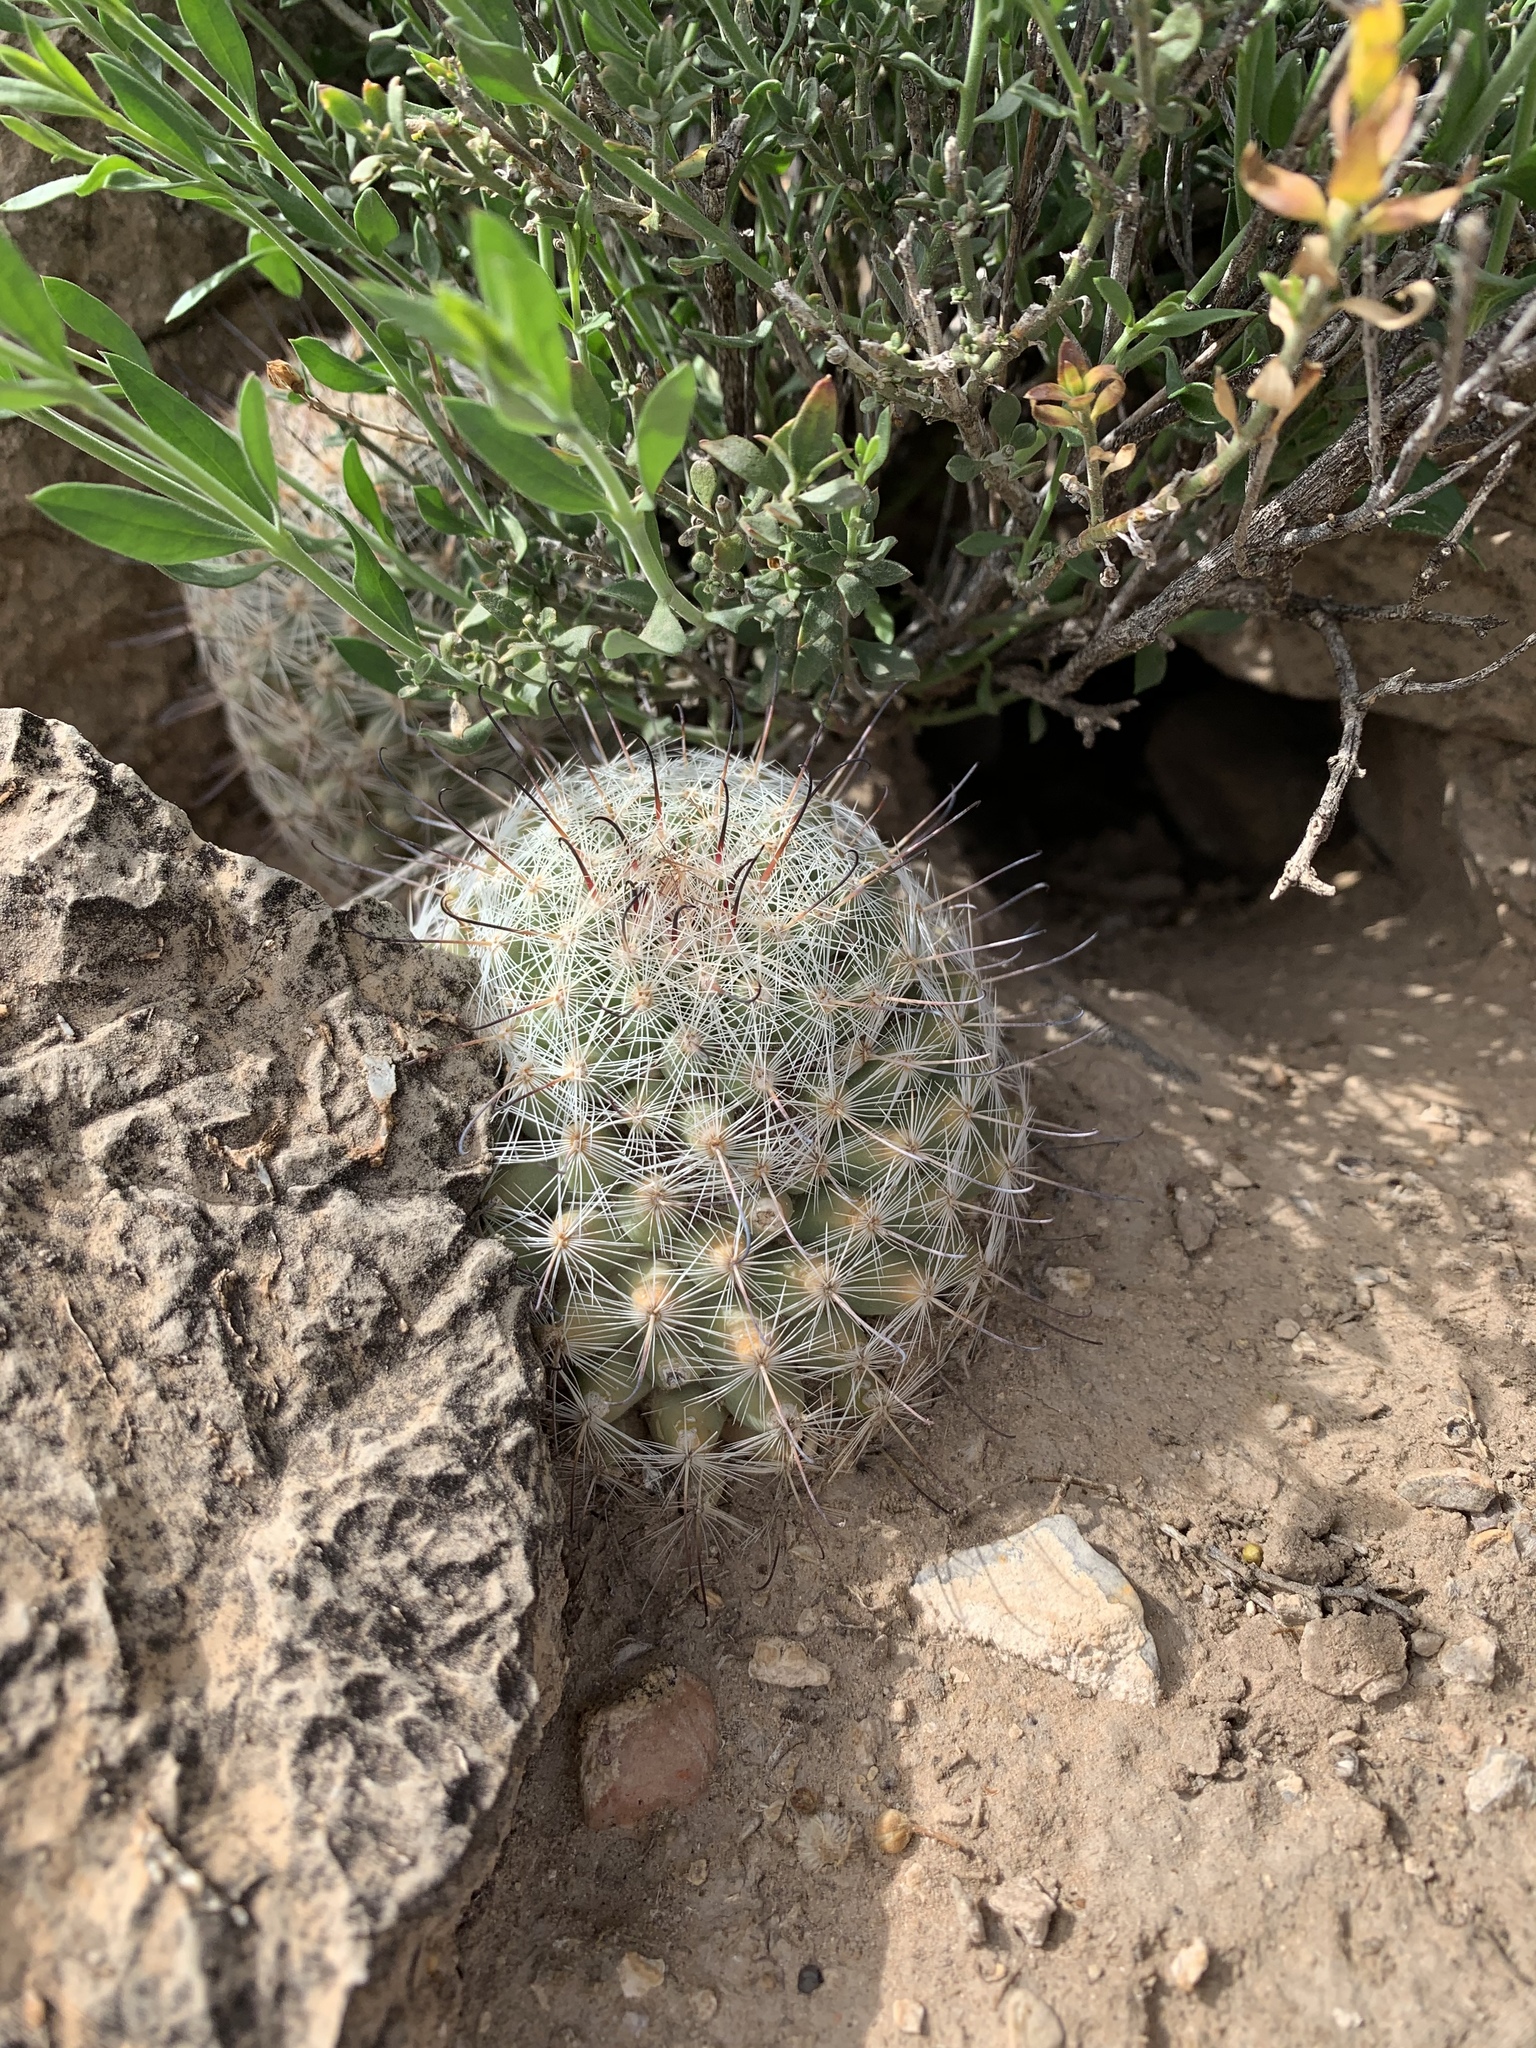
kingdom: Plantae
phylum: Tracheophyta
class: Magnoliopsida
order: Caryophyllales
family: Cactaceae
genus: Cochemiea
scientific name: Cochemiea grahamii
